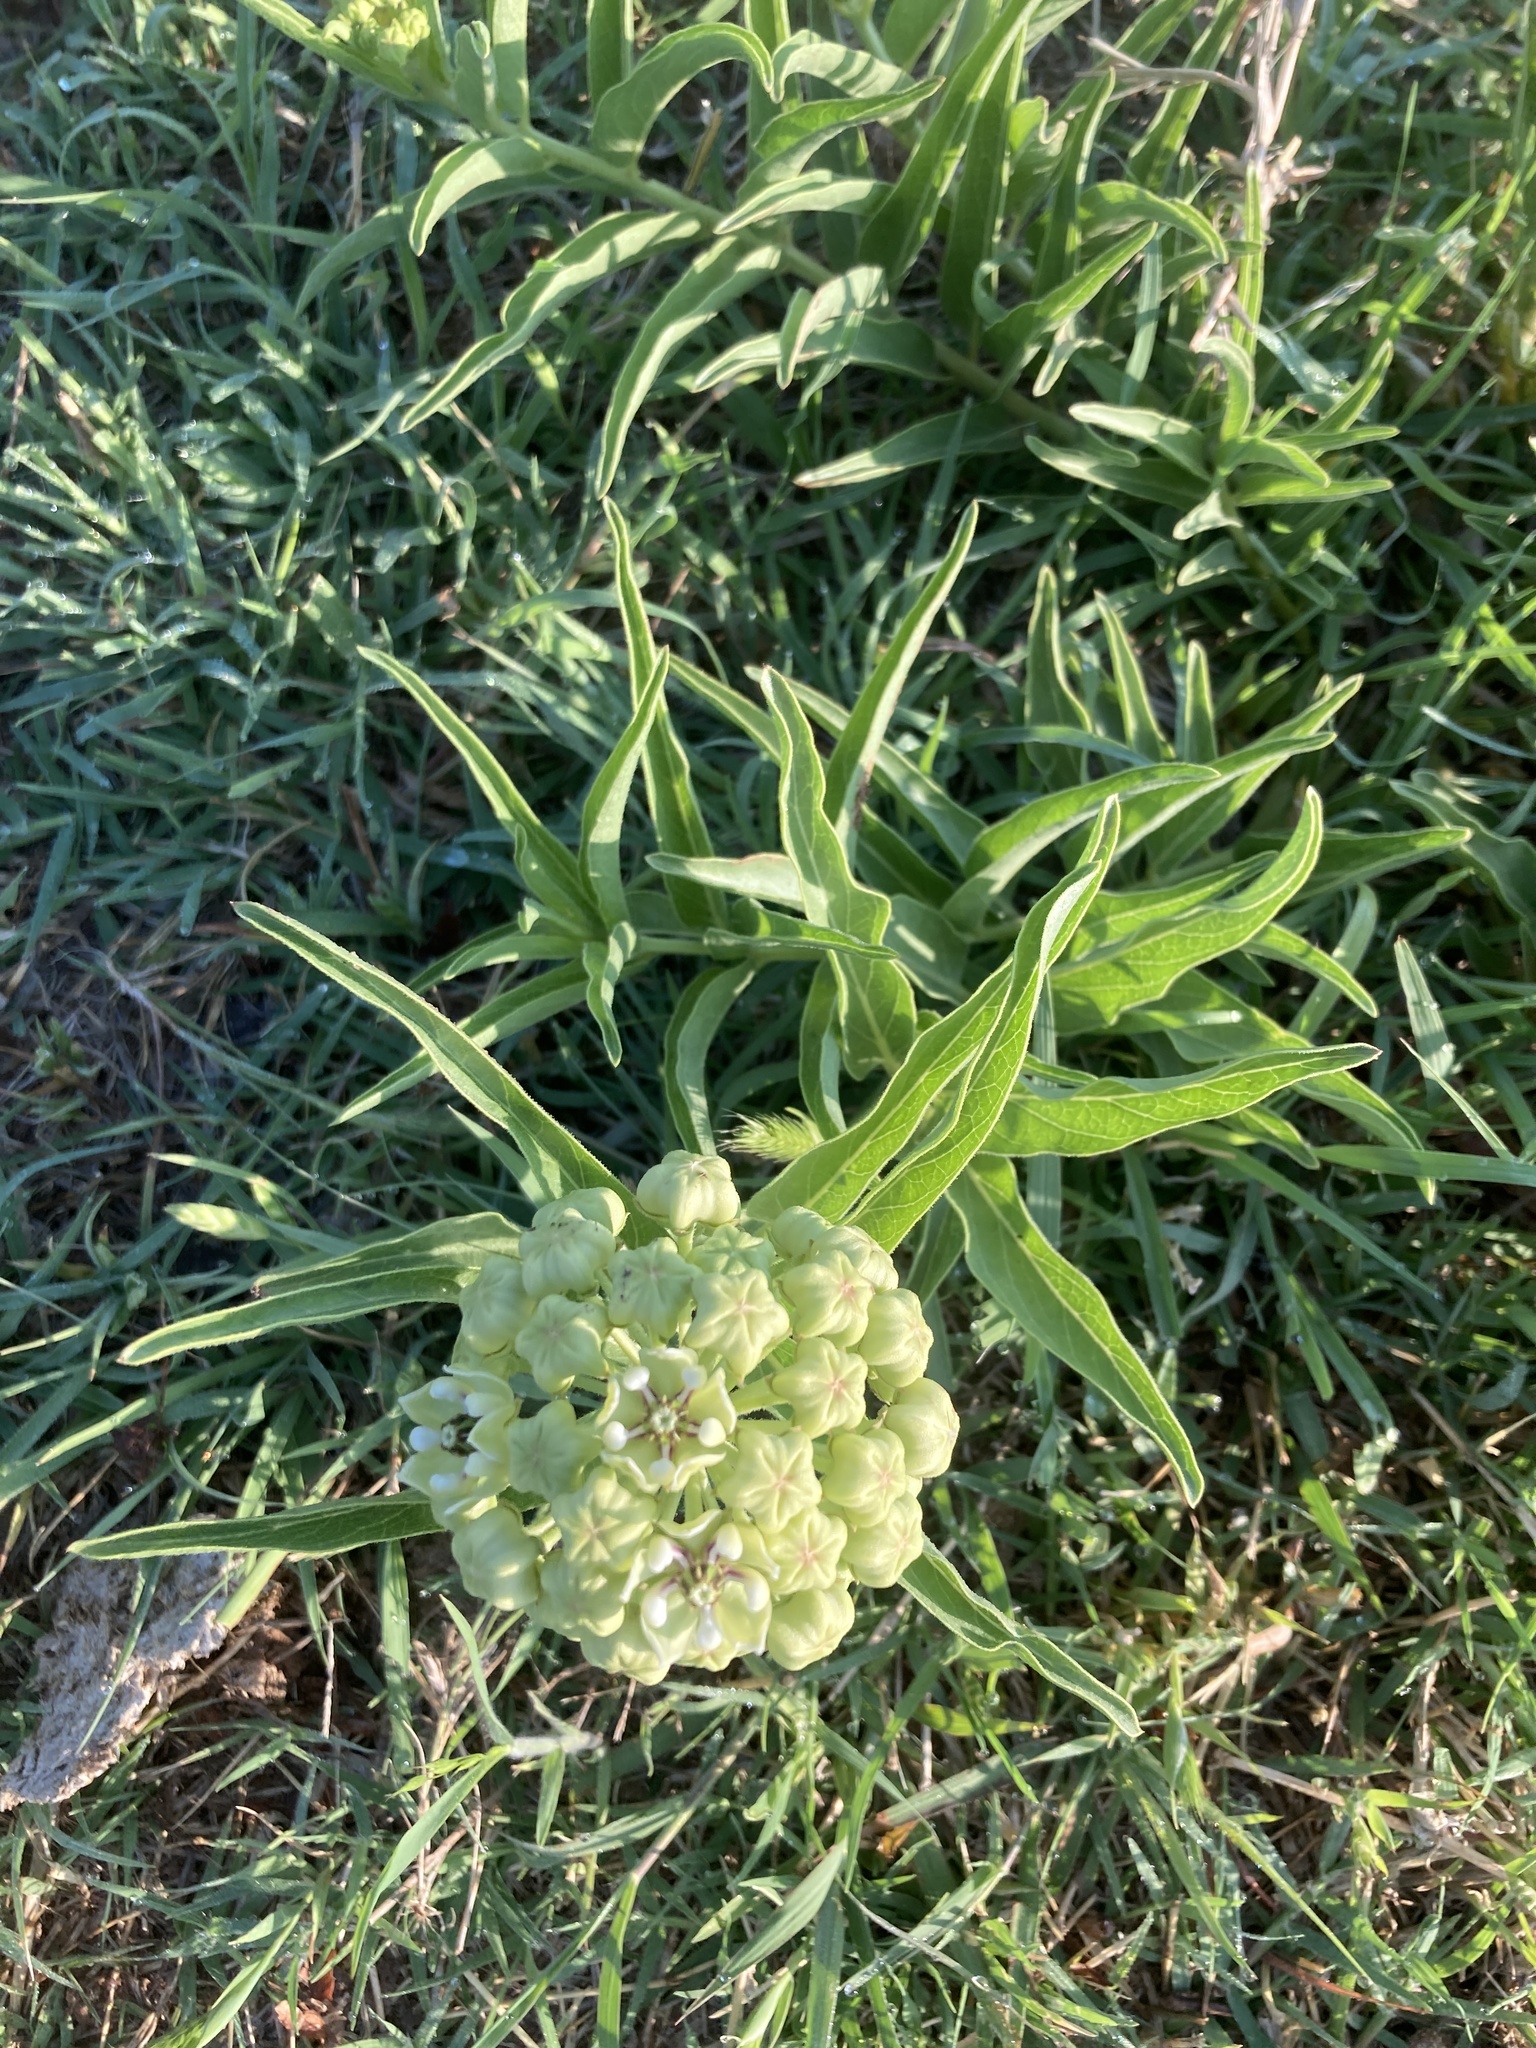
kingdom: Plantae
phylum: Tracheophyta
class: Magnoliopsida
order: Gentianales
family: Apocynaceae
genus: Asclepias
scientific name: Asclepias asperula
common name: Antelope horns
